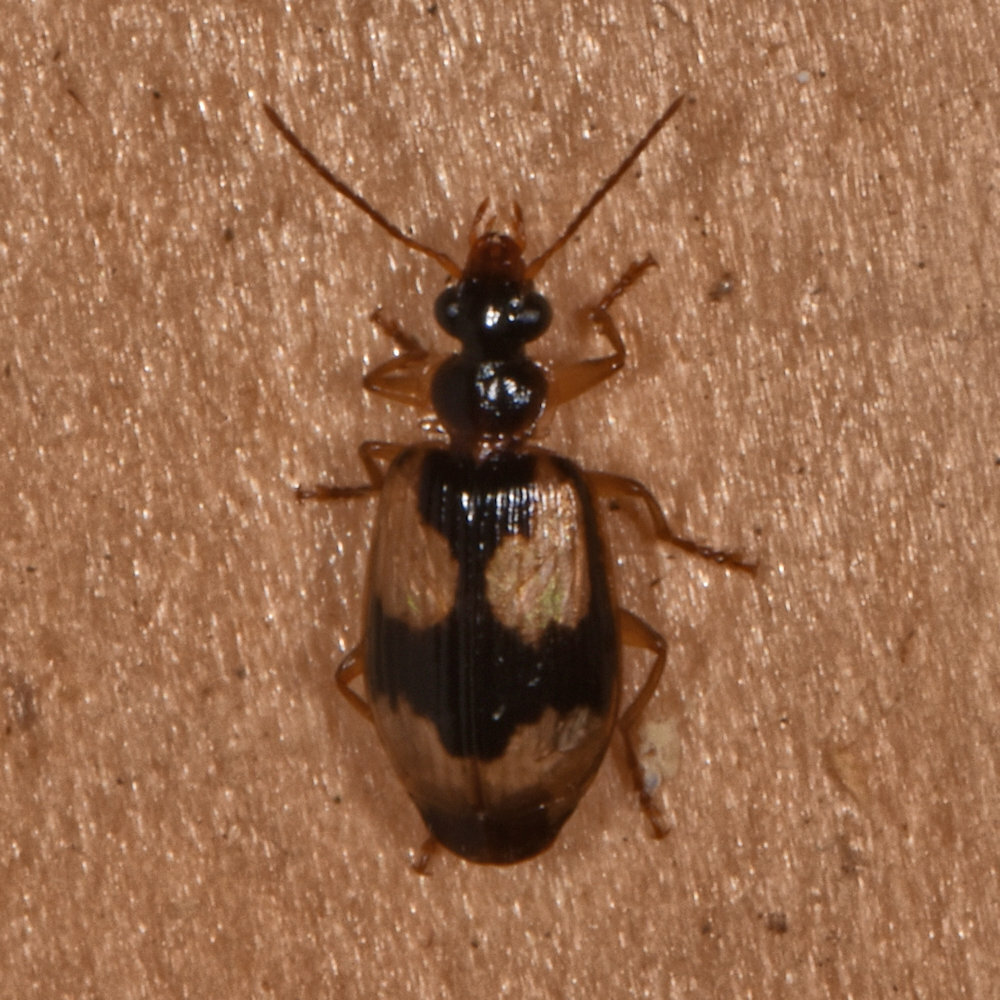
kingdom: Animalia
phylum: Arthropoda
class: Insecta
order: Coleoptera
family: Carabidae
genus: Lebia
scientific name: Lebia fuscata
